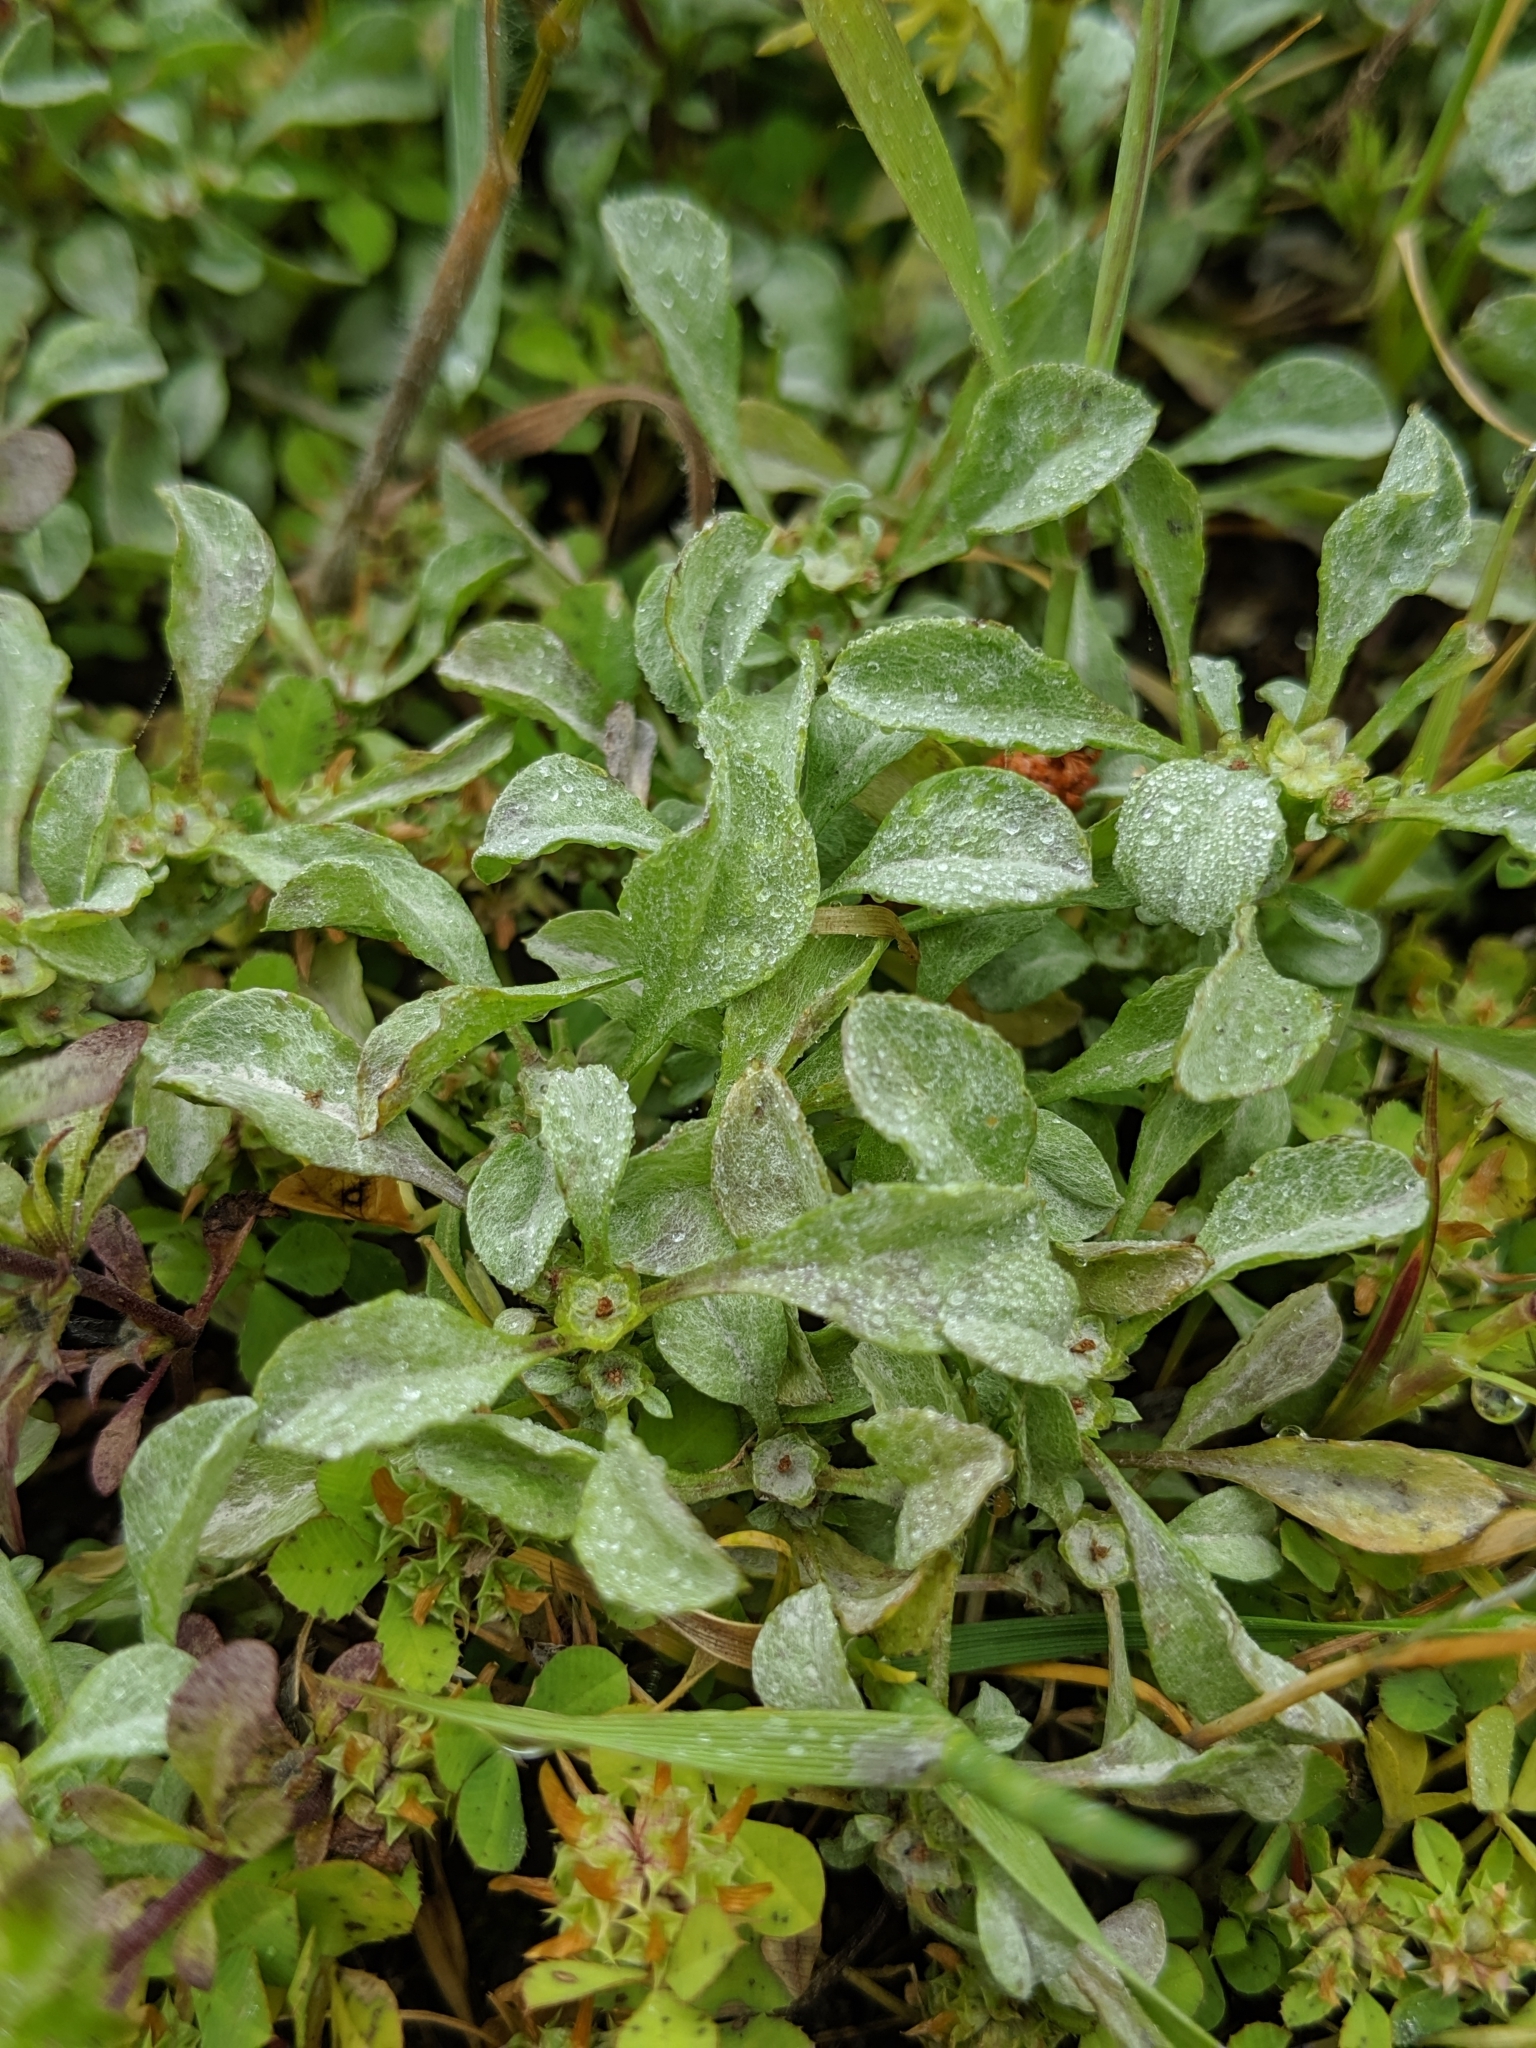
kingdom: Plantae
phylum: Tracheophyta
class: Magnoliopsida
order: Asterales
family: Asteraceae
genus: Hesperevax
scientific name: Hesperevax sparsiflora
